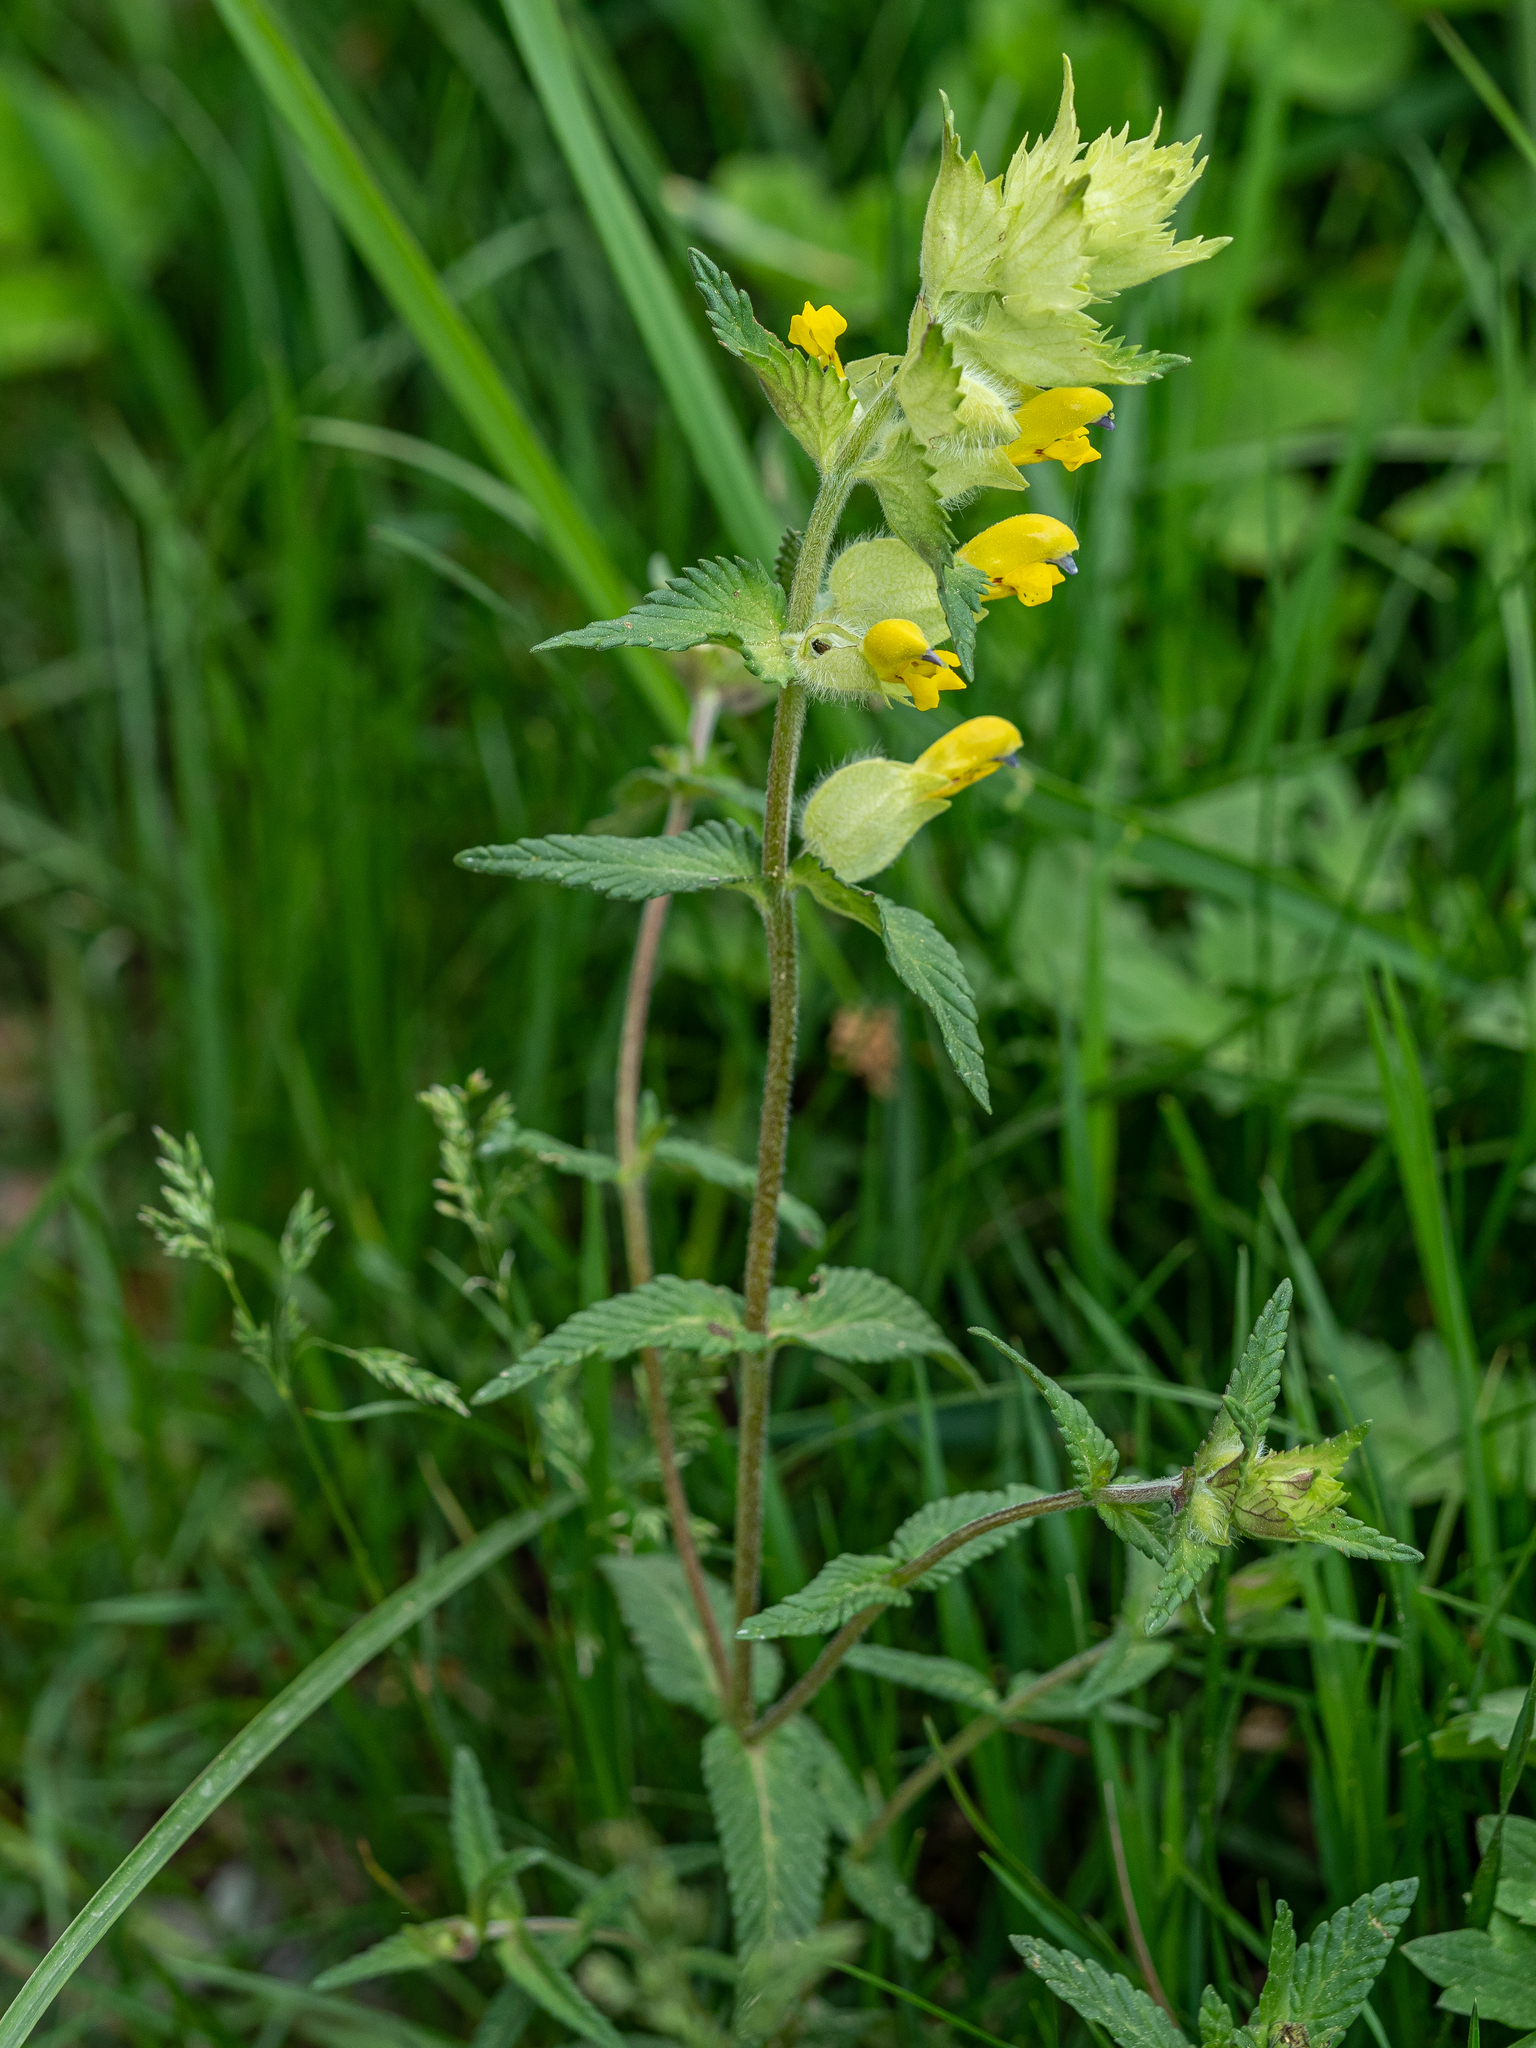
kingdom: Plantae
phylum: Tracheophyta
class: Magnoliopsida
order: Lamiales
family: Orobanchaceae
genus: Rhinanthus
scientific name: Rhinanthus alectorolophus
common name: Greater yellow-rattle
